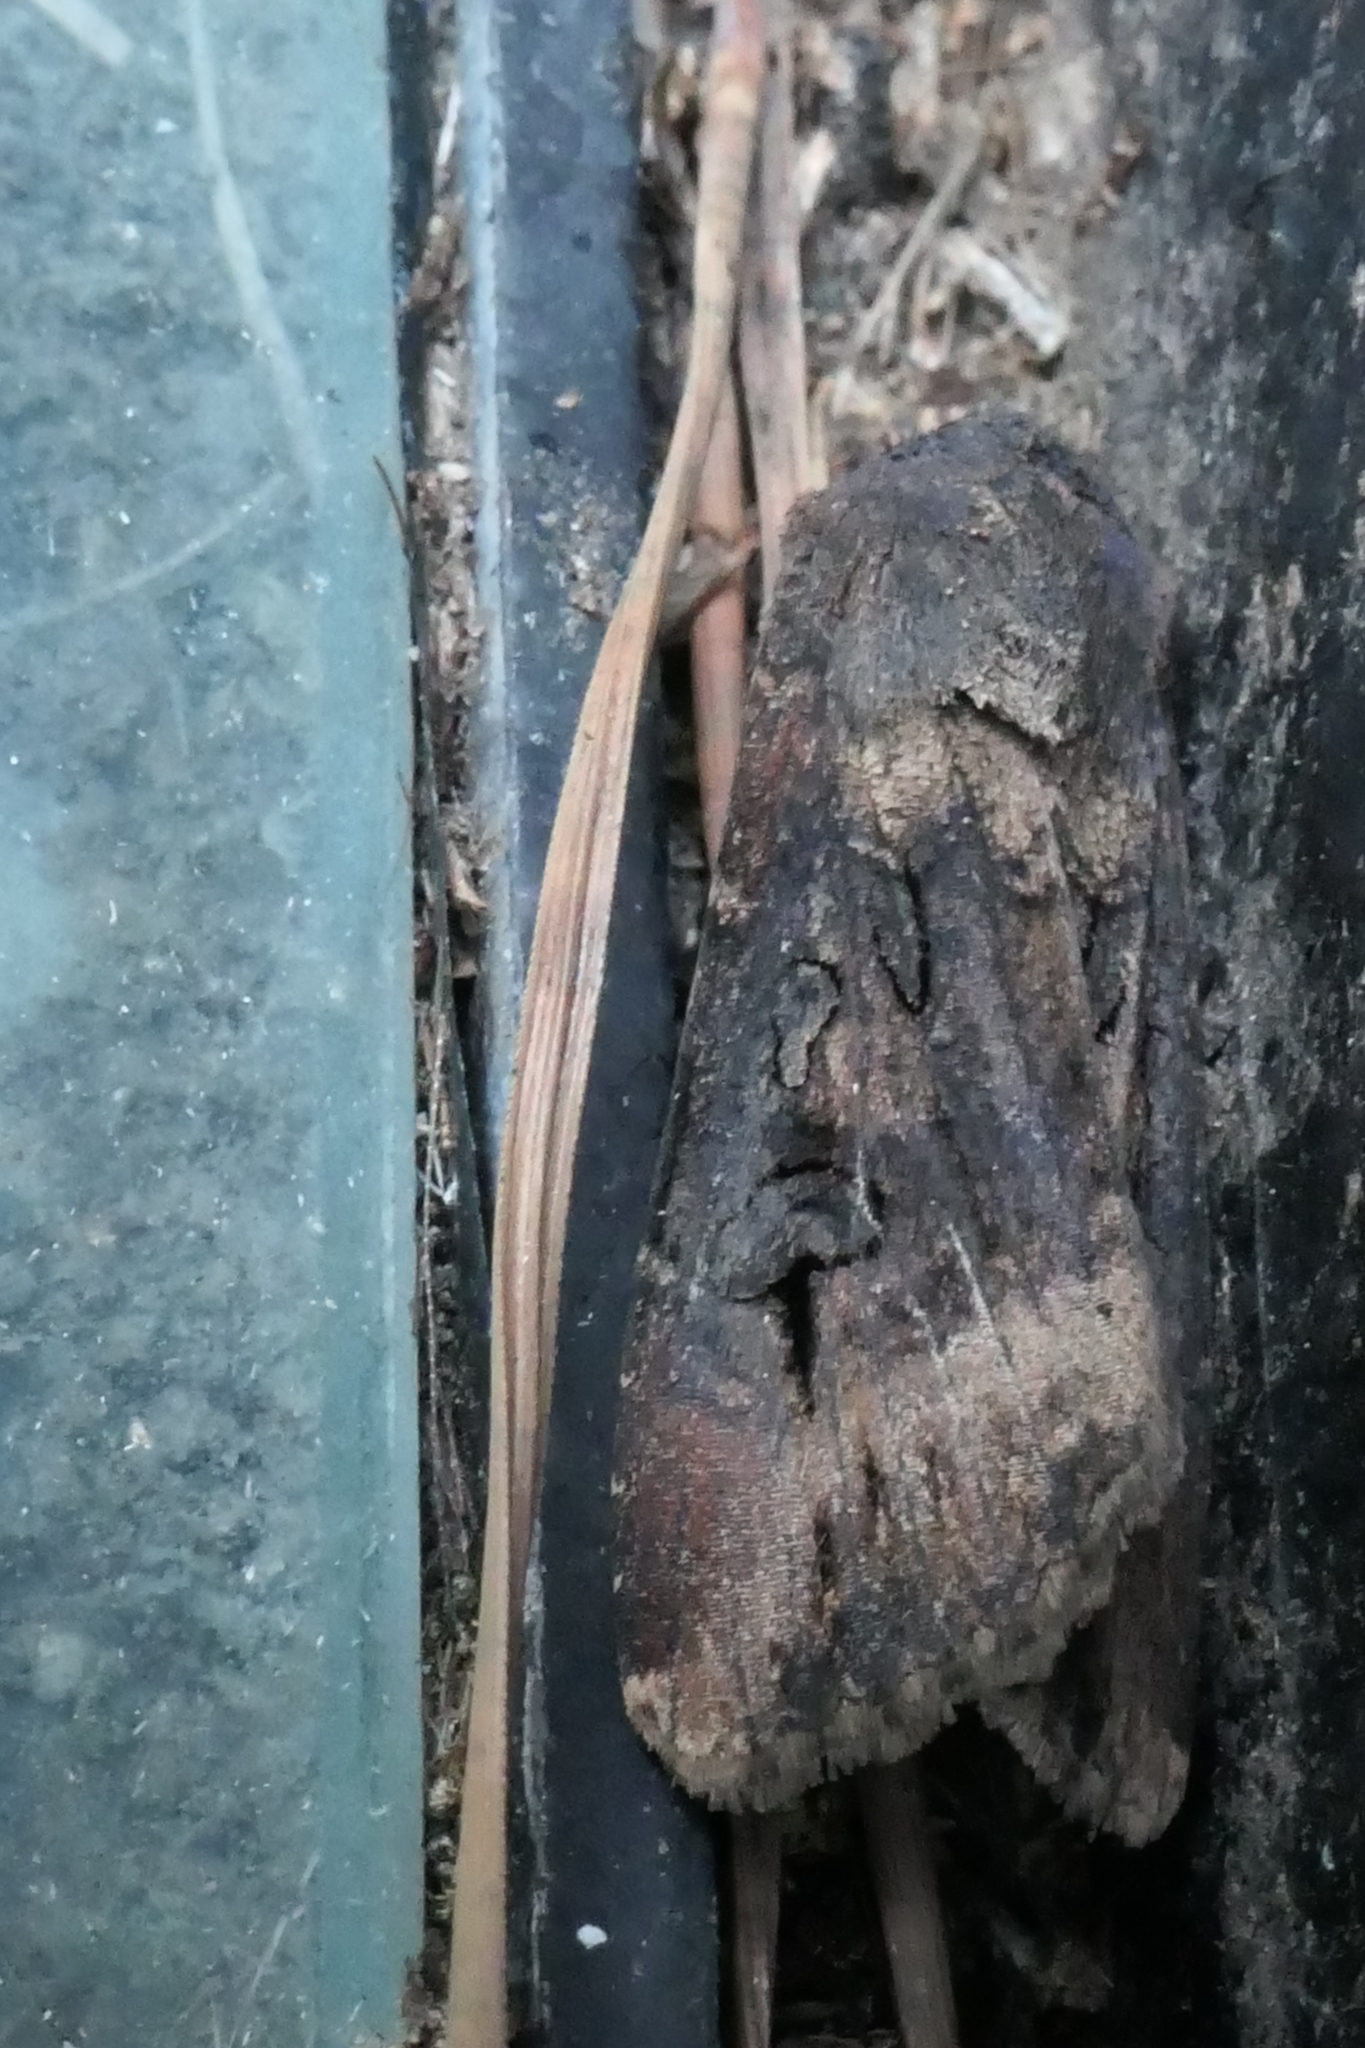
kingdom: Animalia
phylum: Arthropoda
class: Insecta
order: Lepidoptera
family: Noctuidae
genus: Agrotis
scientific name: Agrotis ipsilon
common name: Dark sword-grass
